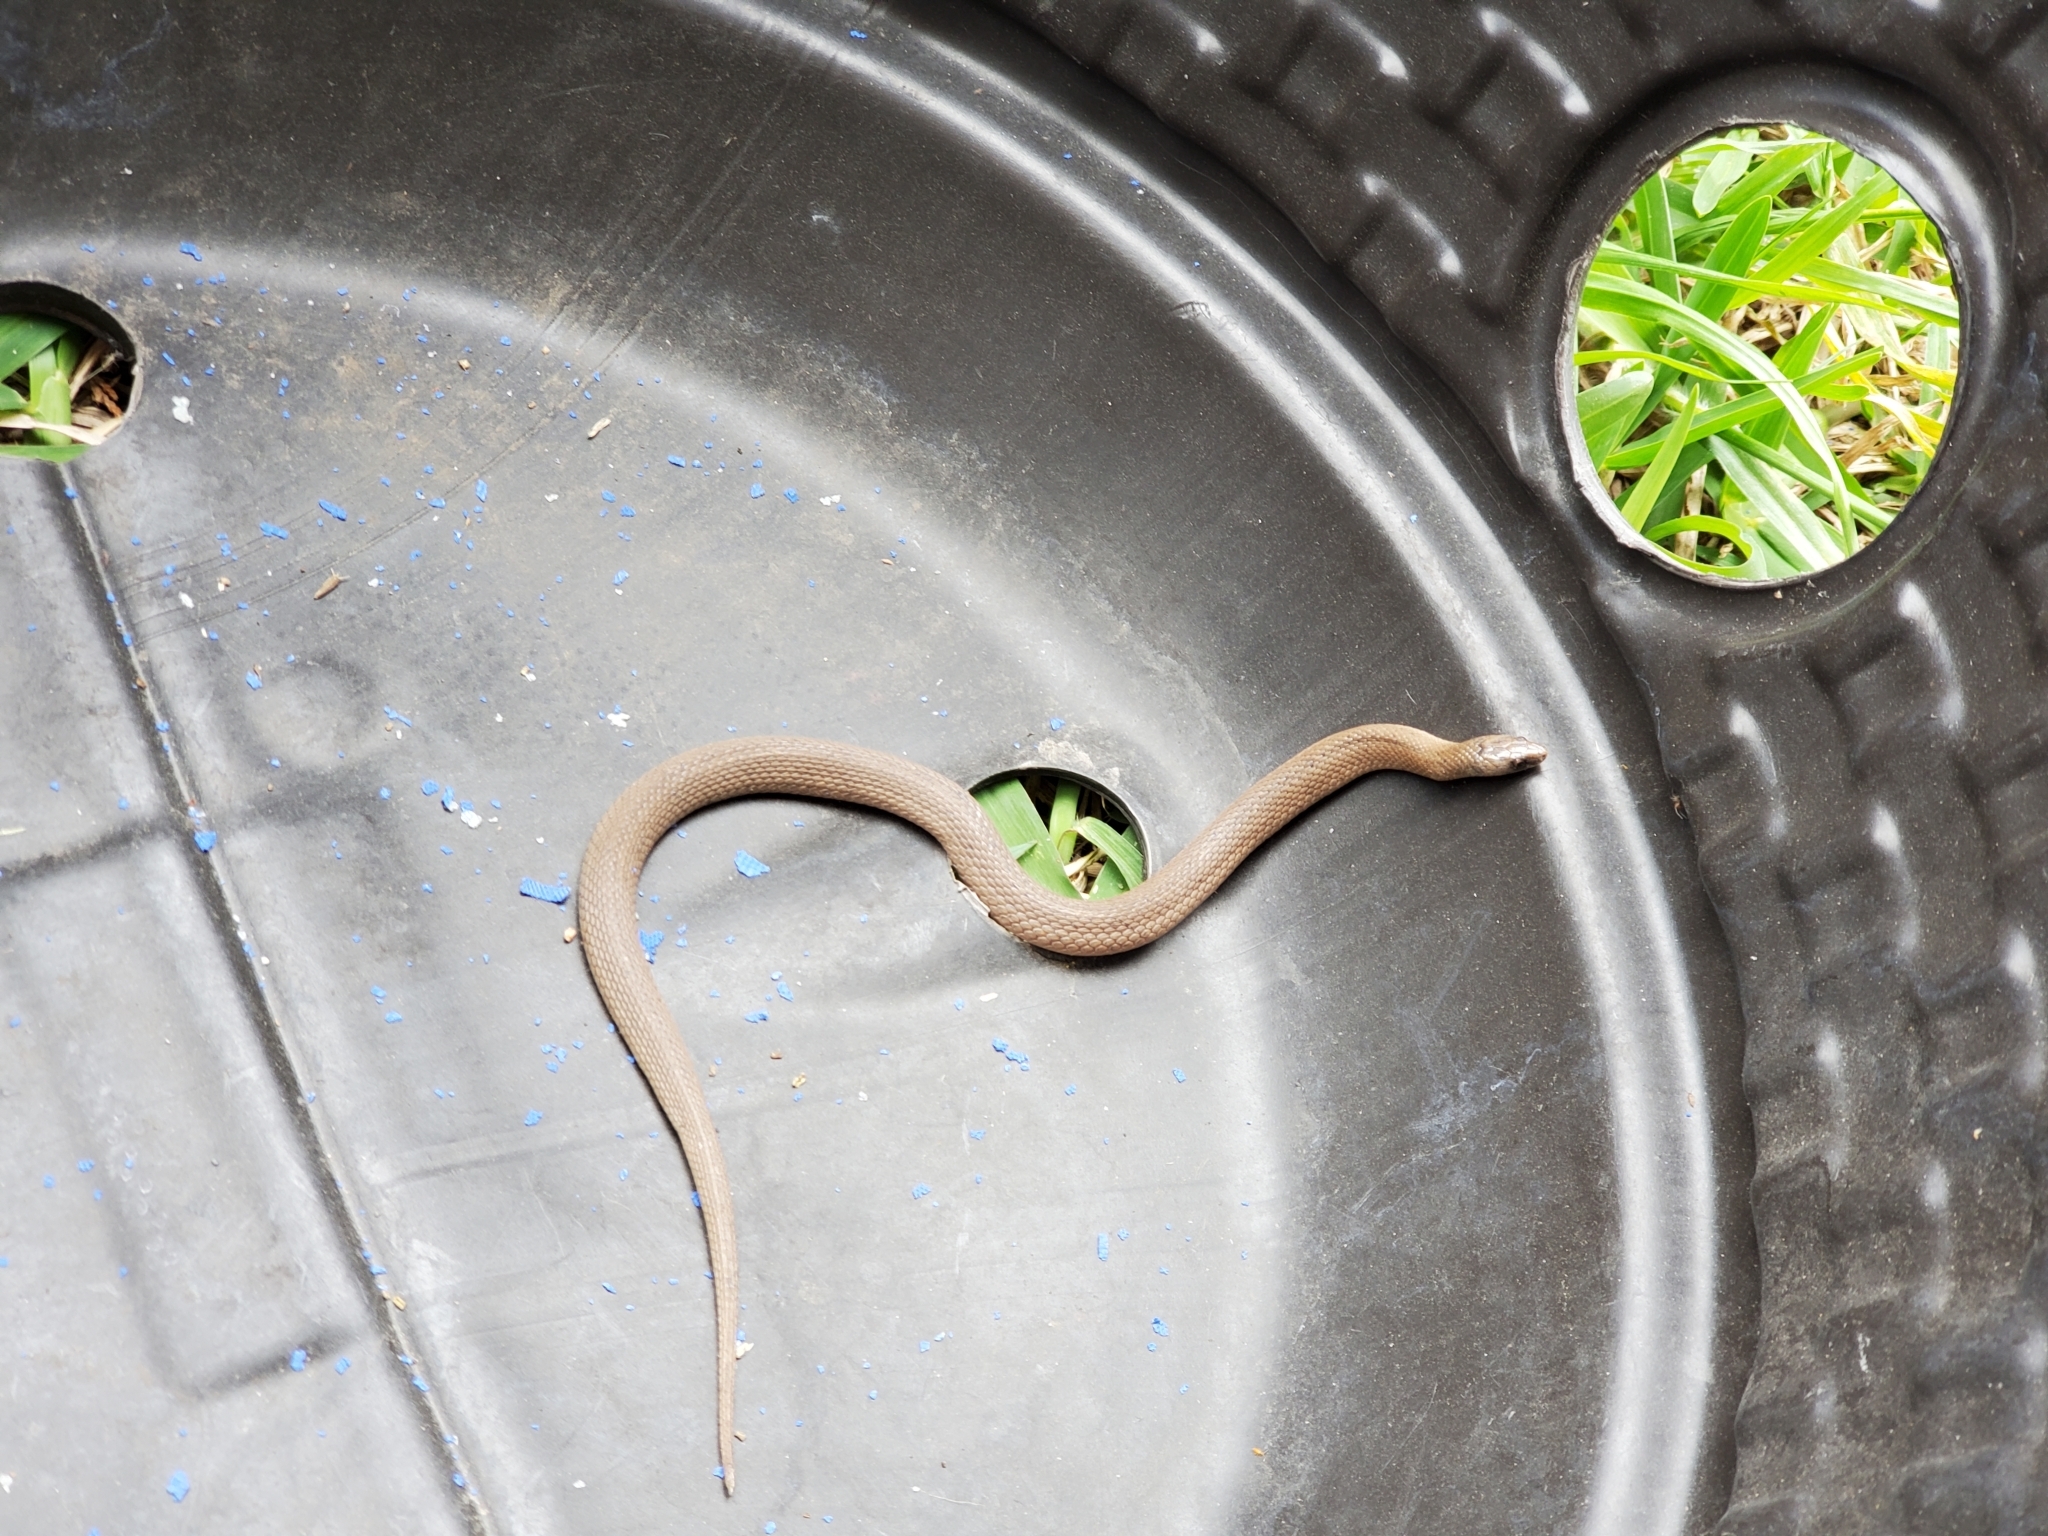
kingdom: Animalia
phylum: Chordata
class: Squamata
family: Colubridae
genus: Haldea
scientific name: Haldea striatula
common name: Rough earth snake
